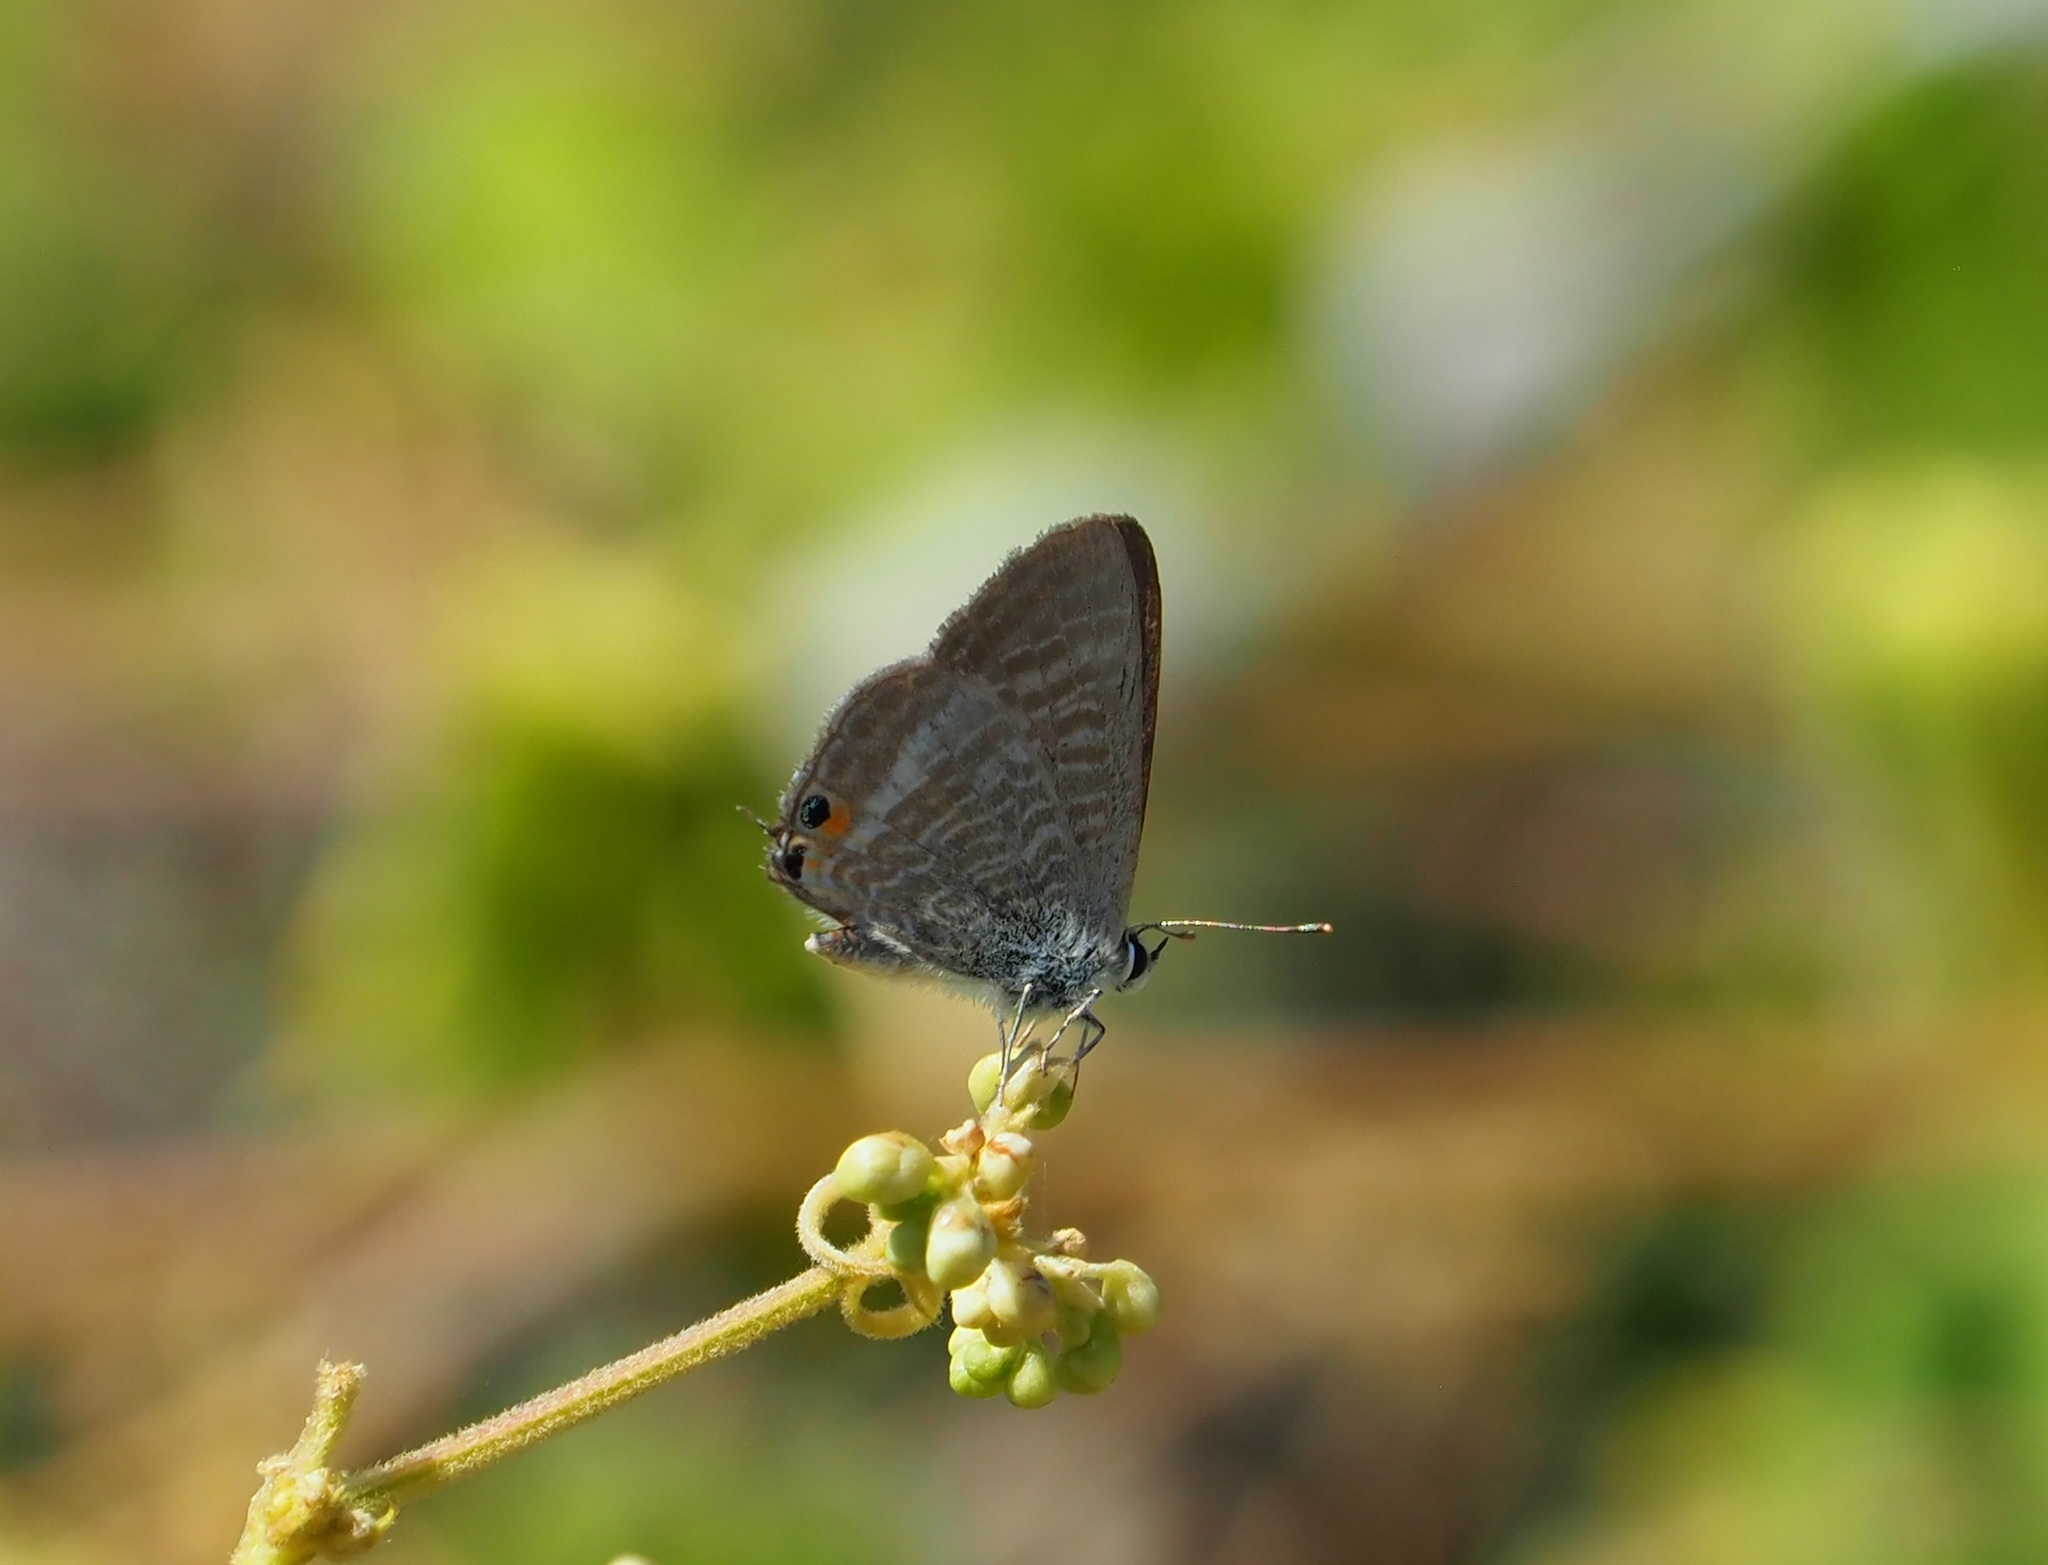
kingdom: Animalia
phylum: Arthropoda
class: Insecta
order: Lepidoptera
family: Lycaenidae
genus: Lampides
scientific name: Lampides boeticus
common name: Long-tailed blue
